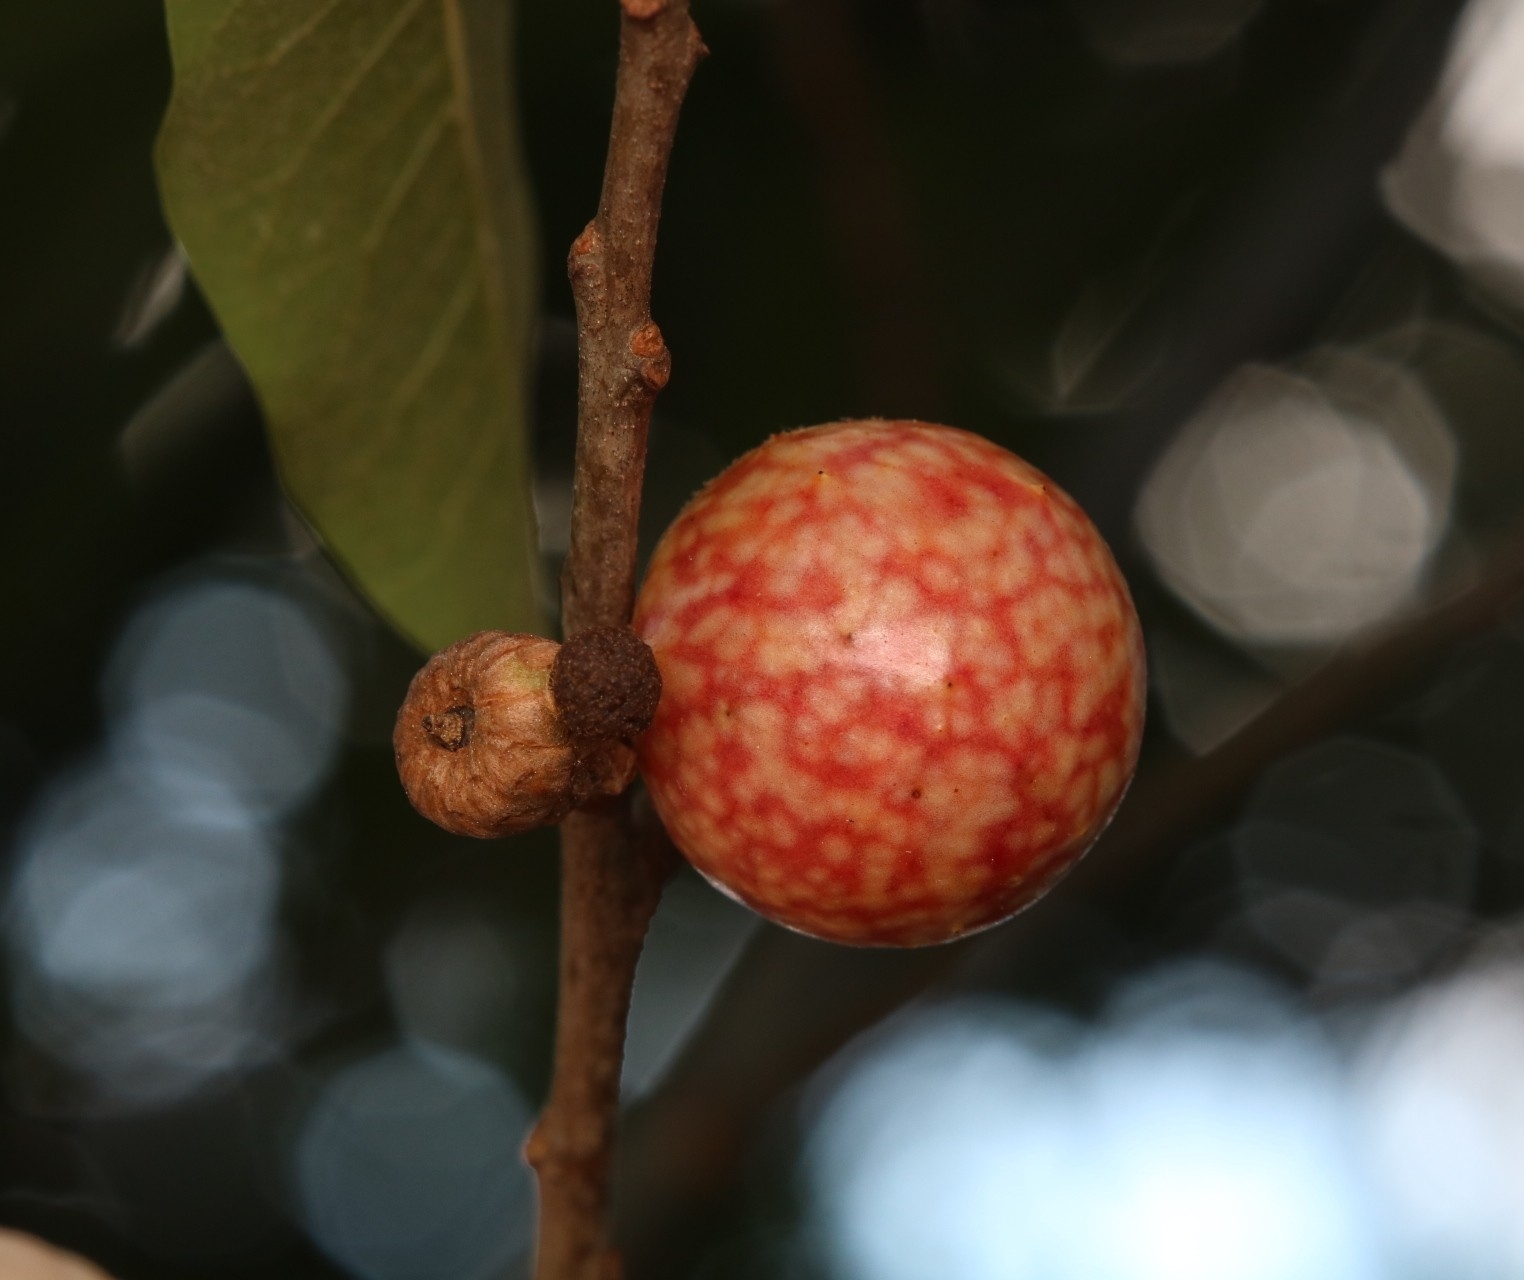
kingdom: Animalia
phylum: Arthropoda
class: Insecta
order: Hymenoptera
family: Cynipidae
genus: Amphibolips
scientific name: Amphibolips
